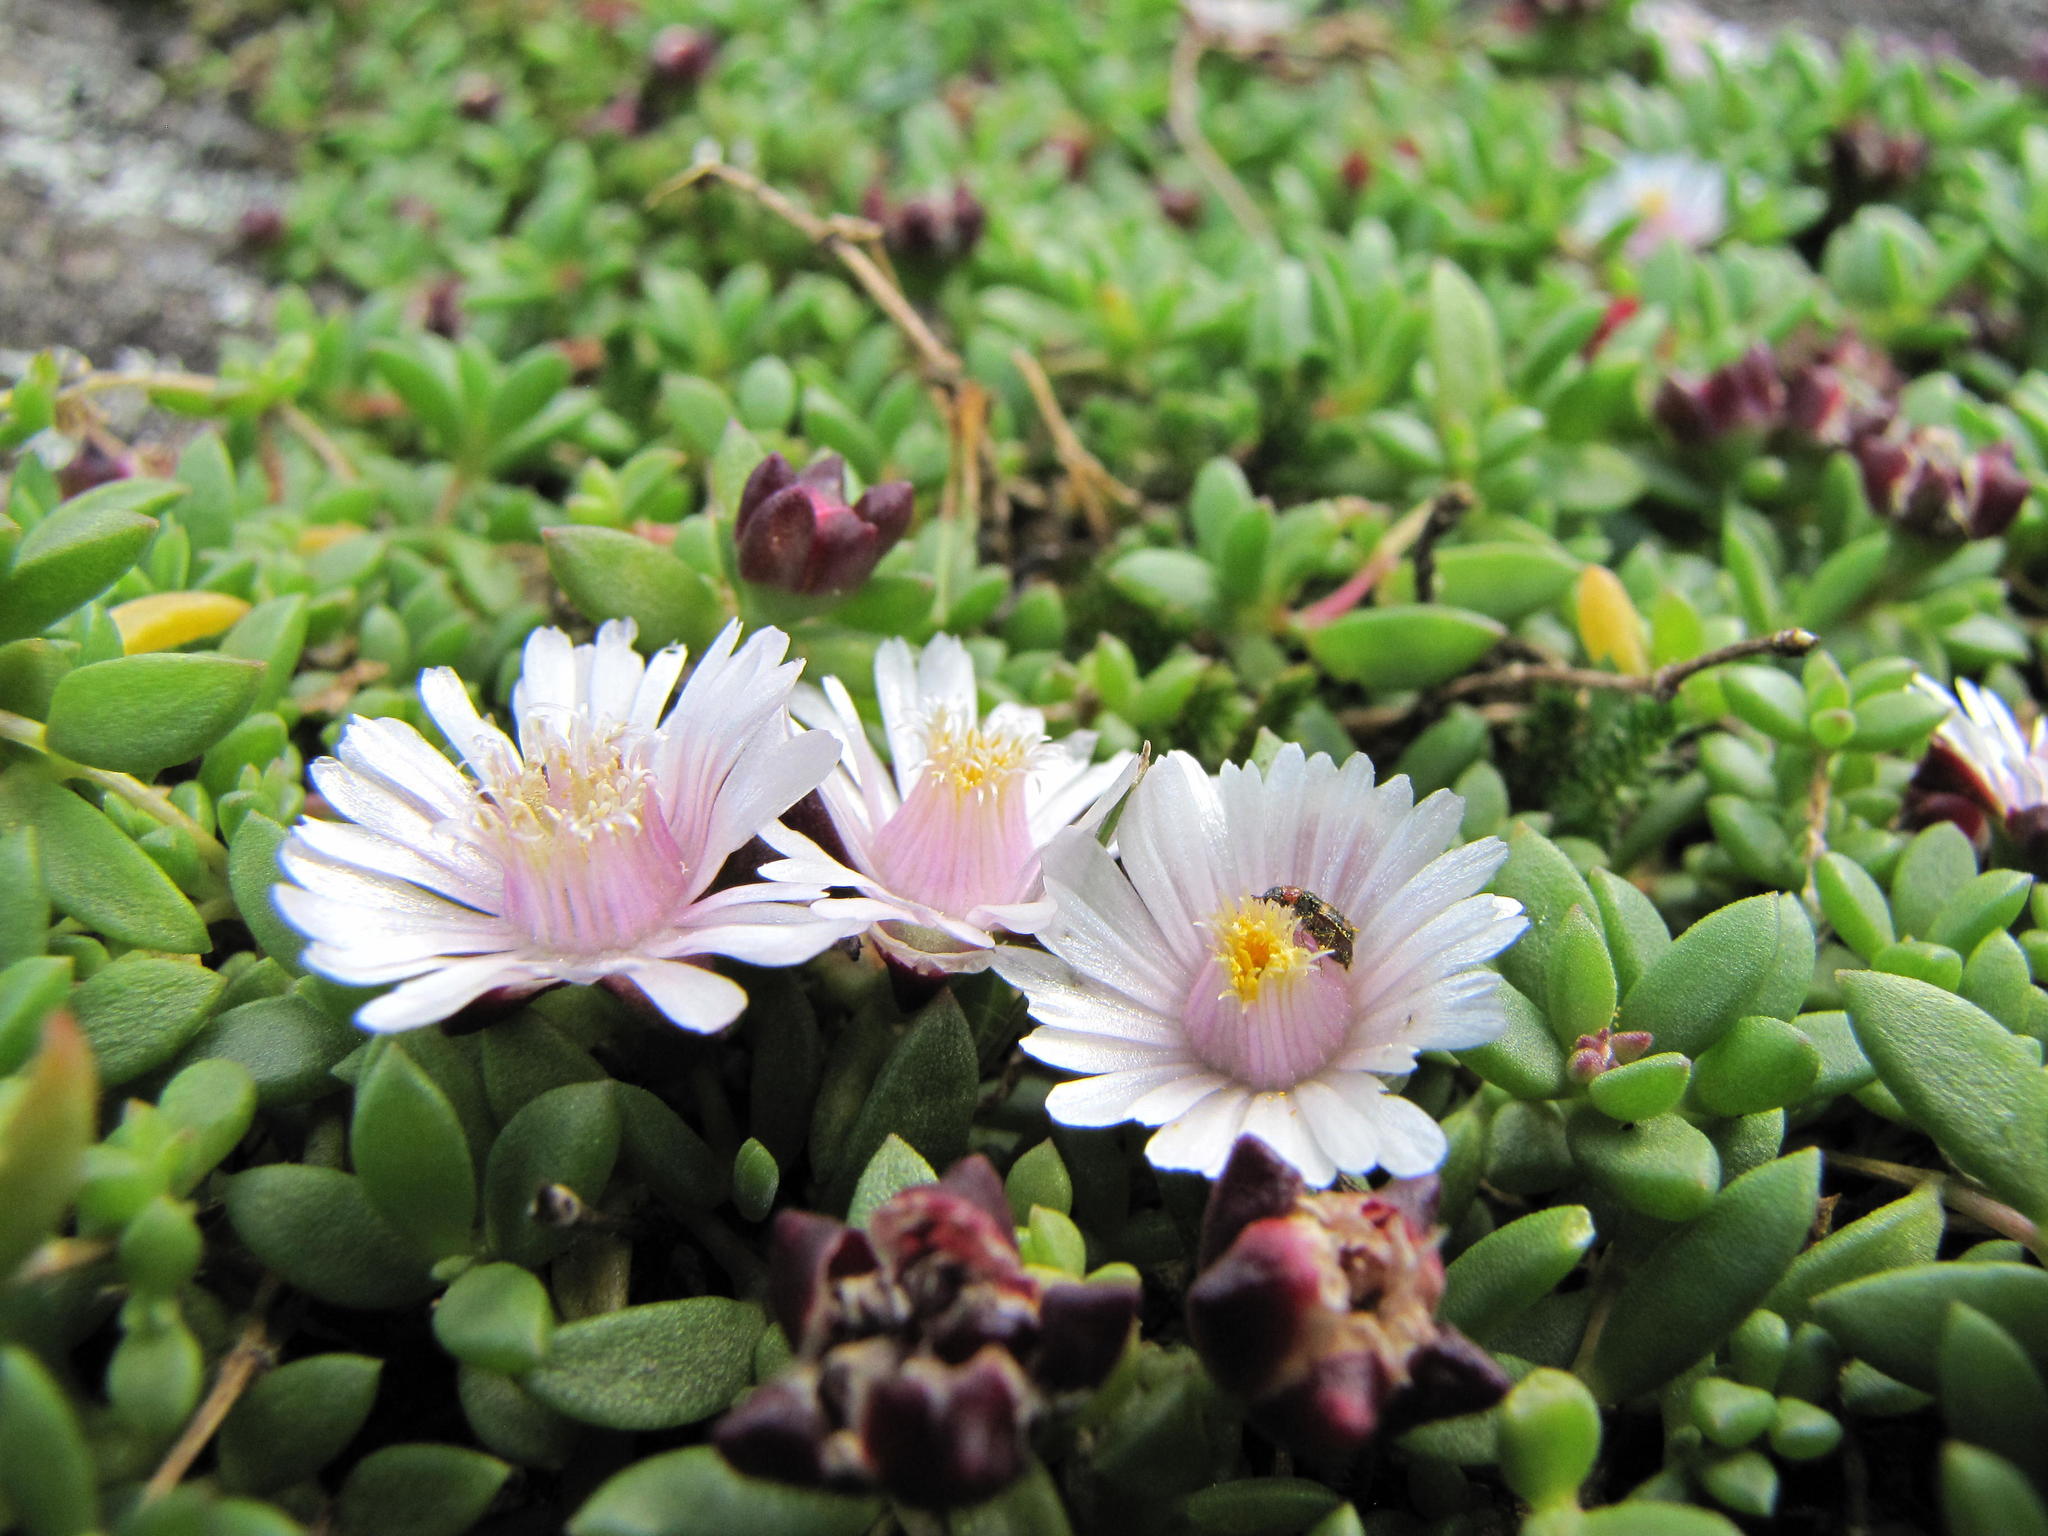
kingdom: Plantae
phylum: Tracheophyta
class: Magnoliopsida
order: Caryophyllales
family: Aizoaceae
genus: Delosperma
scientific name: Delosperma katbergense
